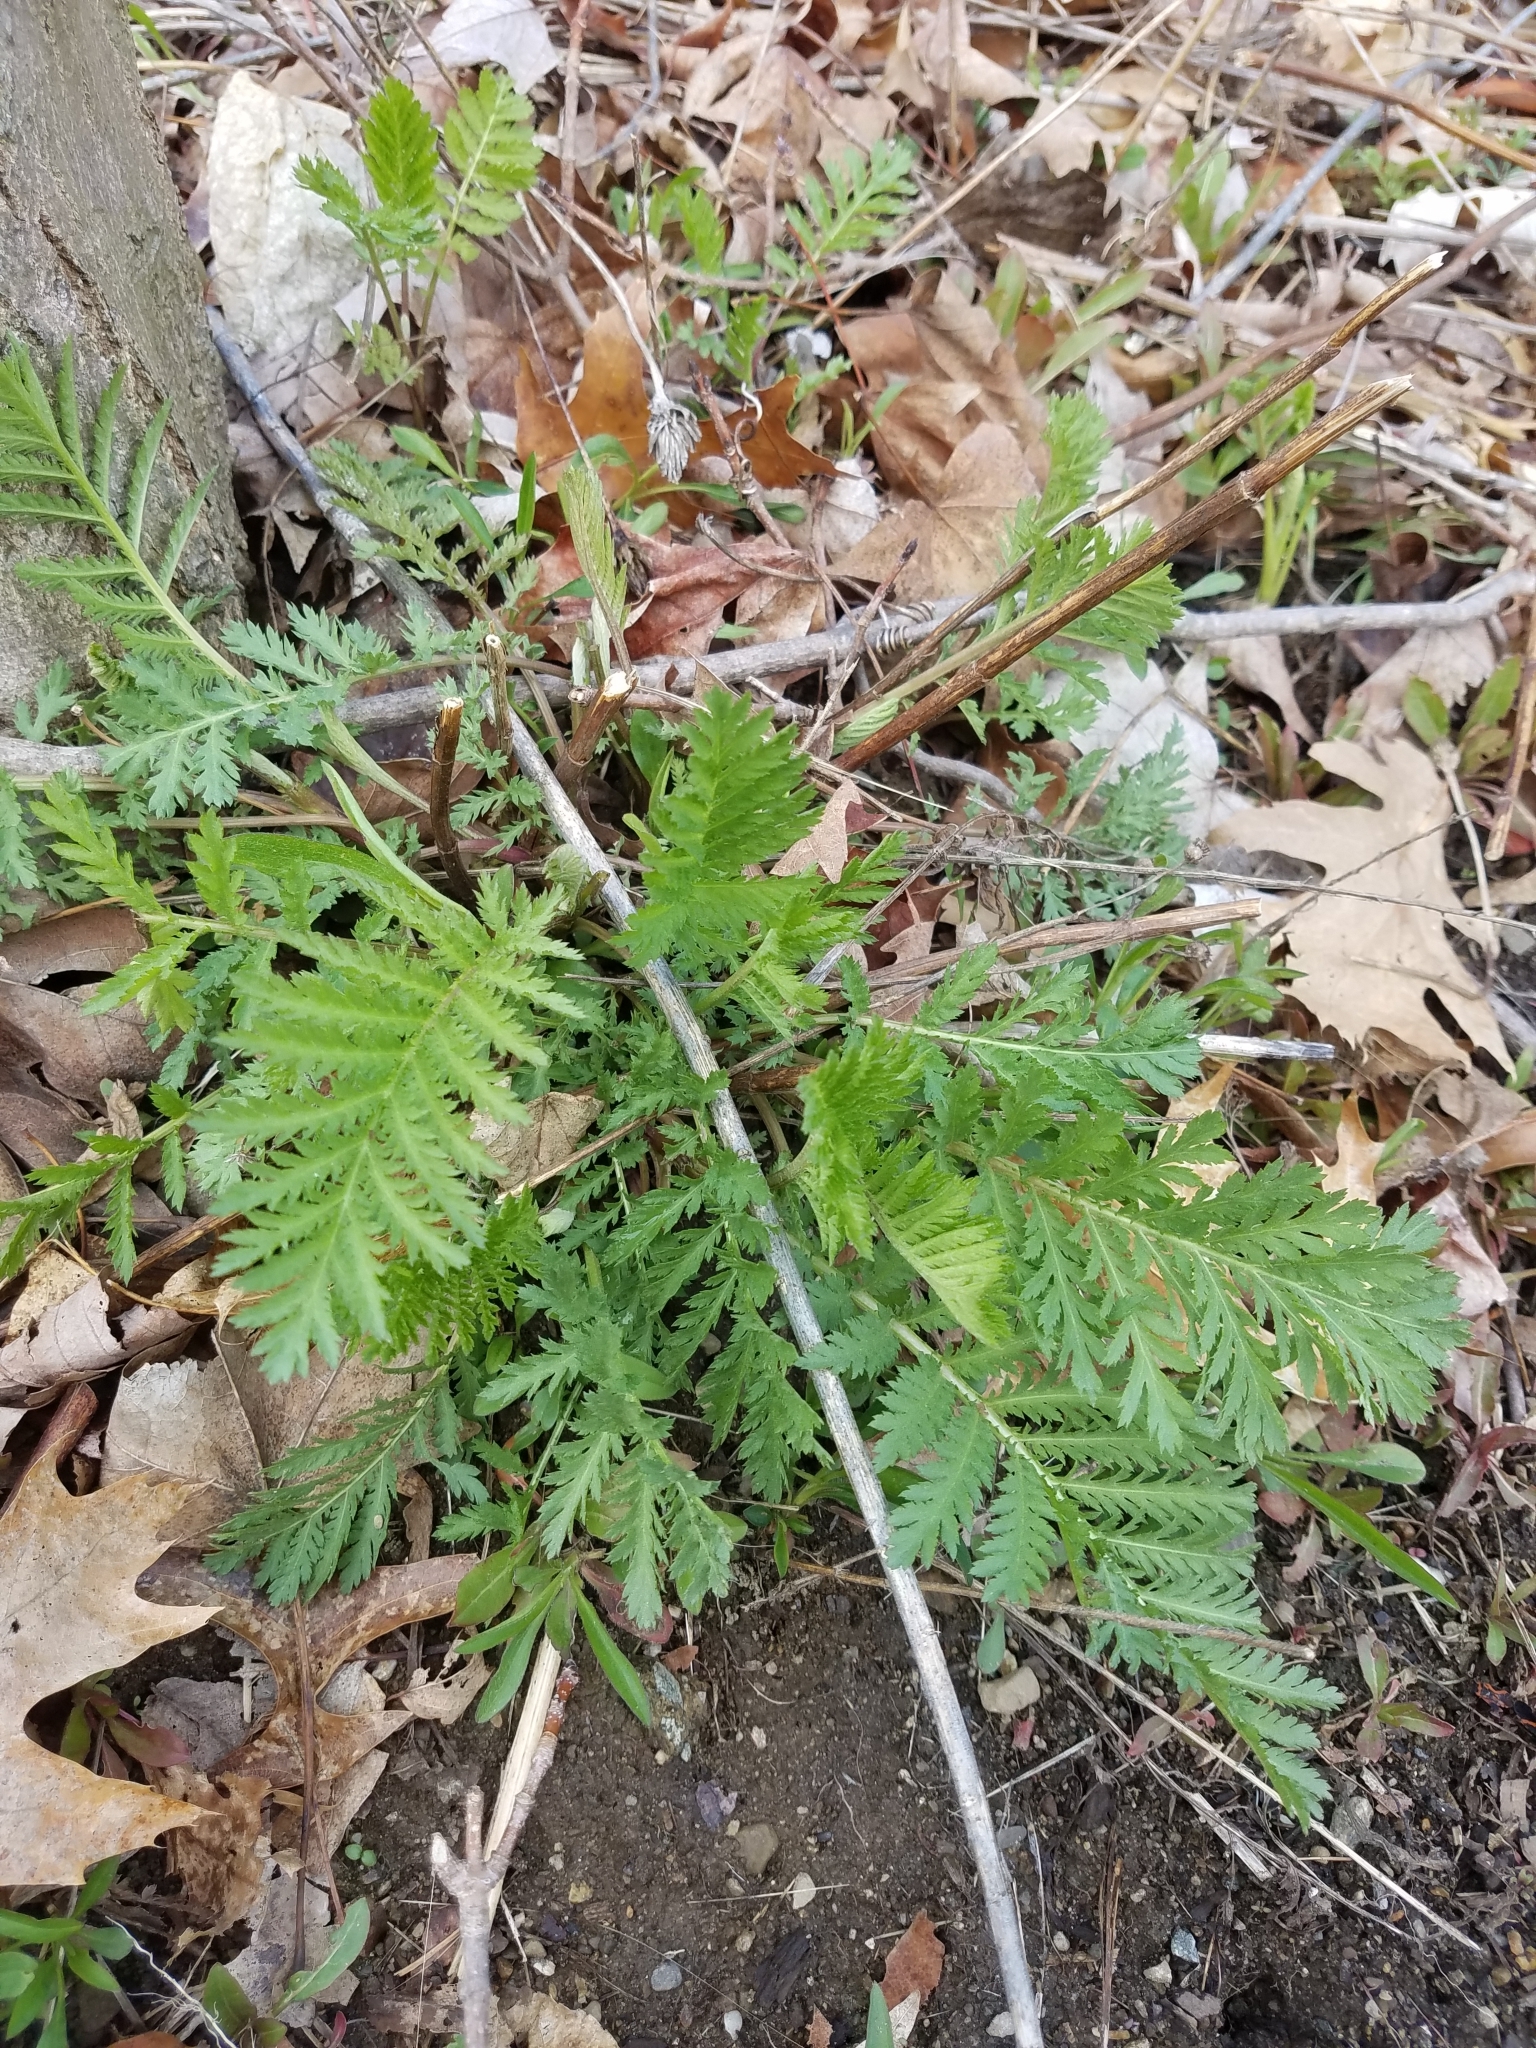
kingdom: Plantae
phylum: Tracheophyta
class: Magnoliopsida
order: Asterales
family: Asteraceae
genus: Tanacetum
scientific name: Tanacetum vulgare
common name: Common tansy
